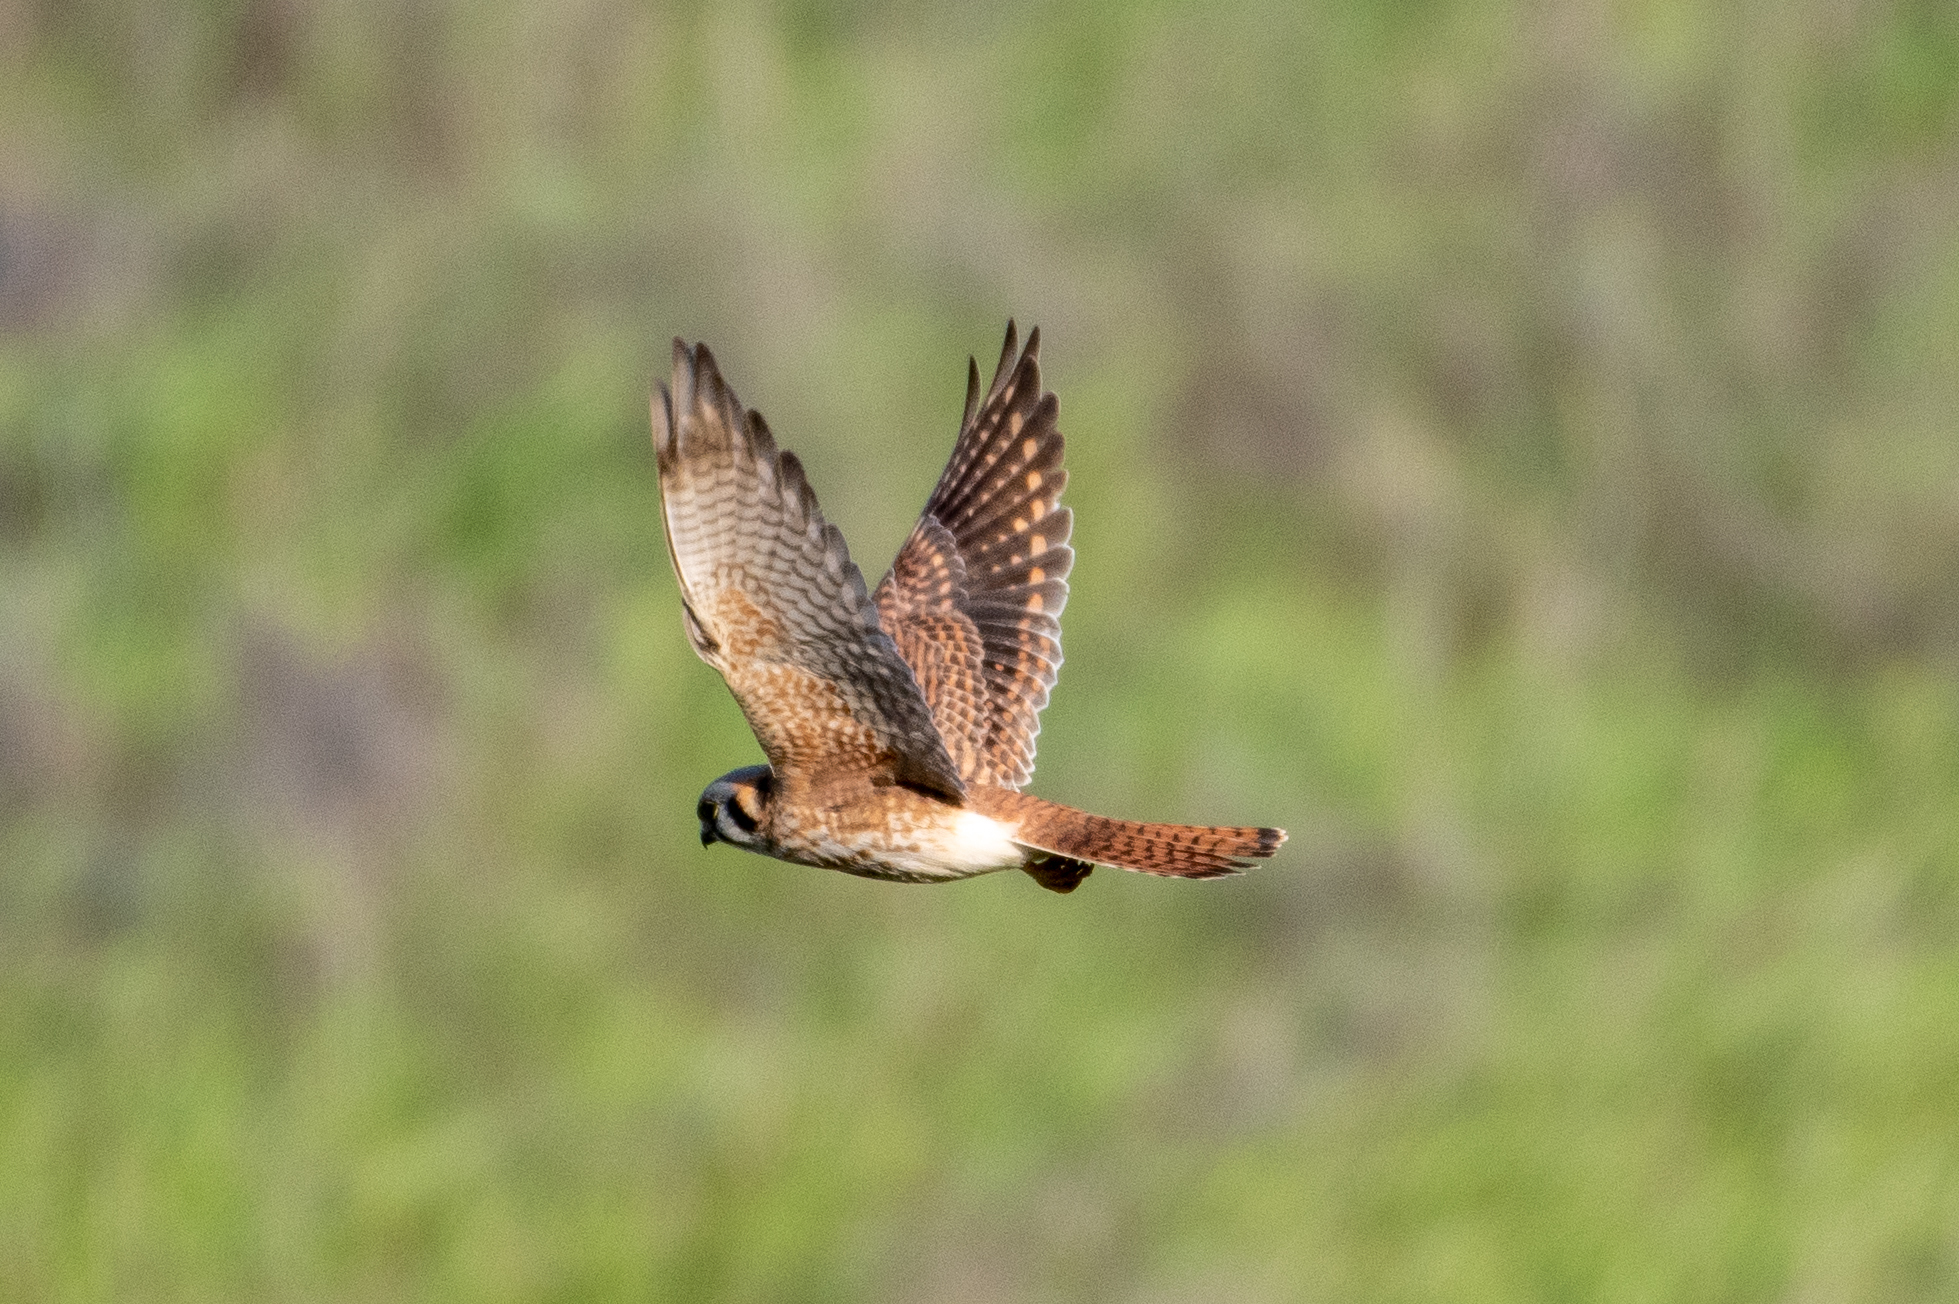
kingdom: Animalia
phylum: Chordata
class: Aves
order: Falconiformes
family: Falconidae
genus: Falco
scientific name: Falco sparverius
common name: American kestrel
